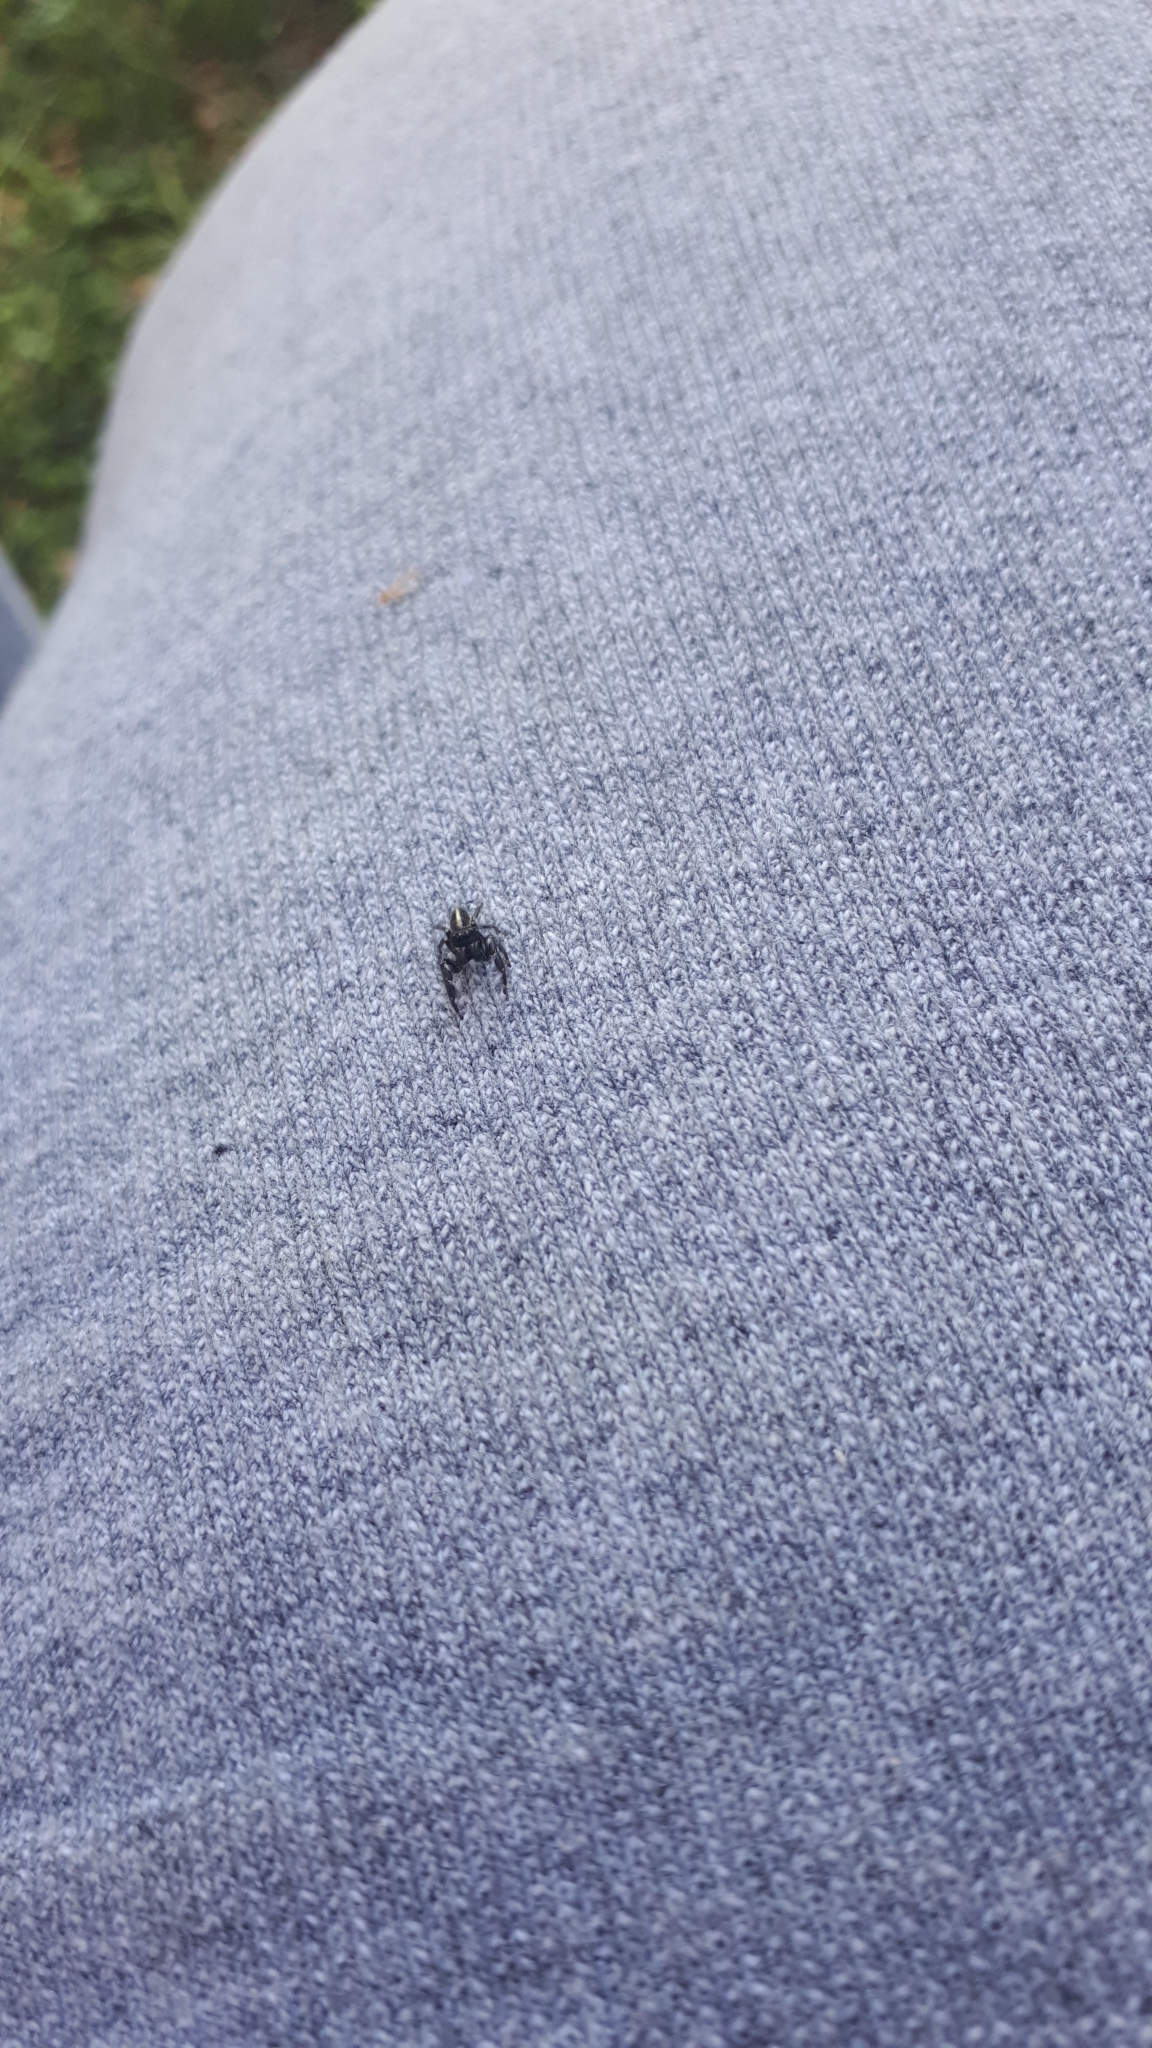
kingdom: Animalia
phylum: Arthropoda
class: Arachnida
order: Araneae
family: Salticidae
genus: Dendryphantes
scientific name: Dendryphantes mordax
